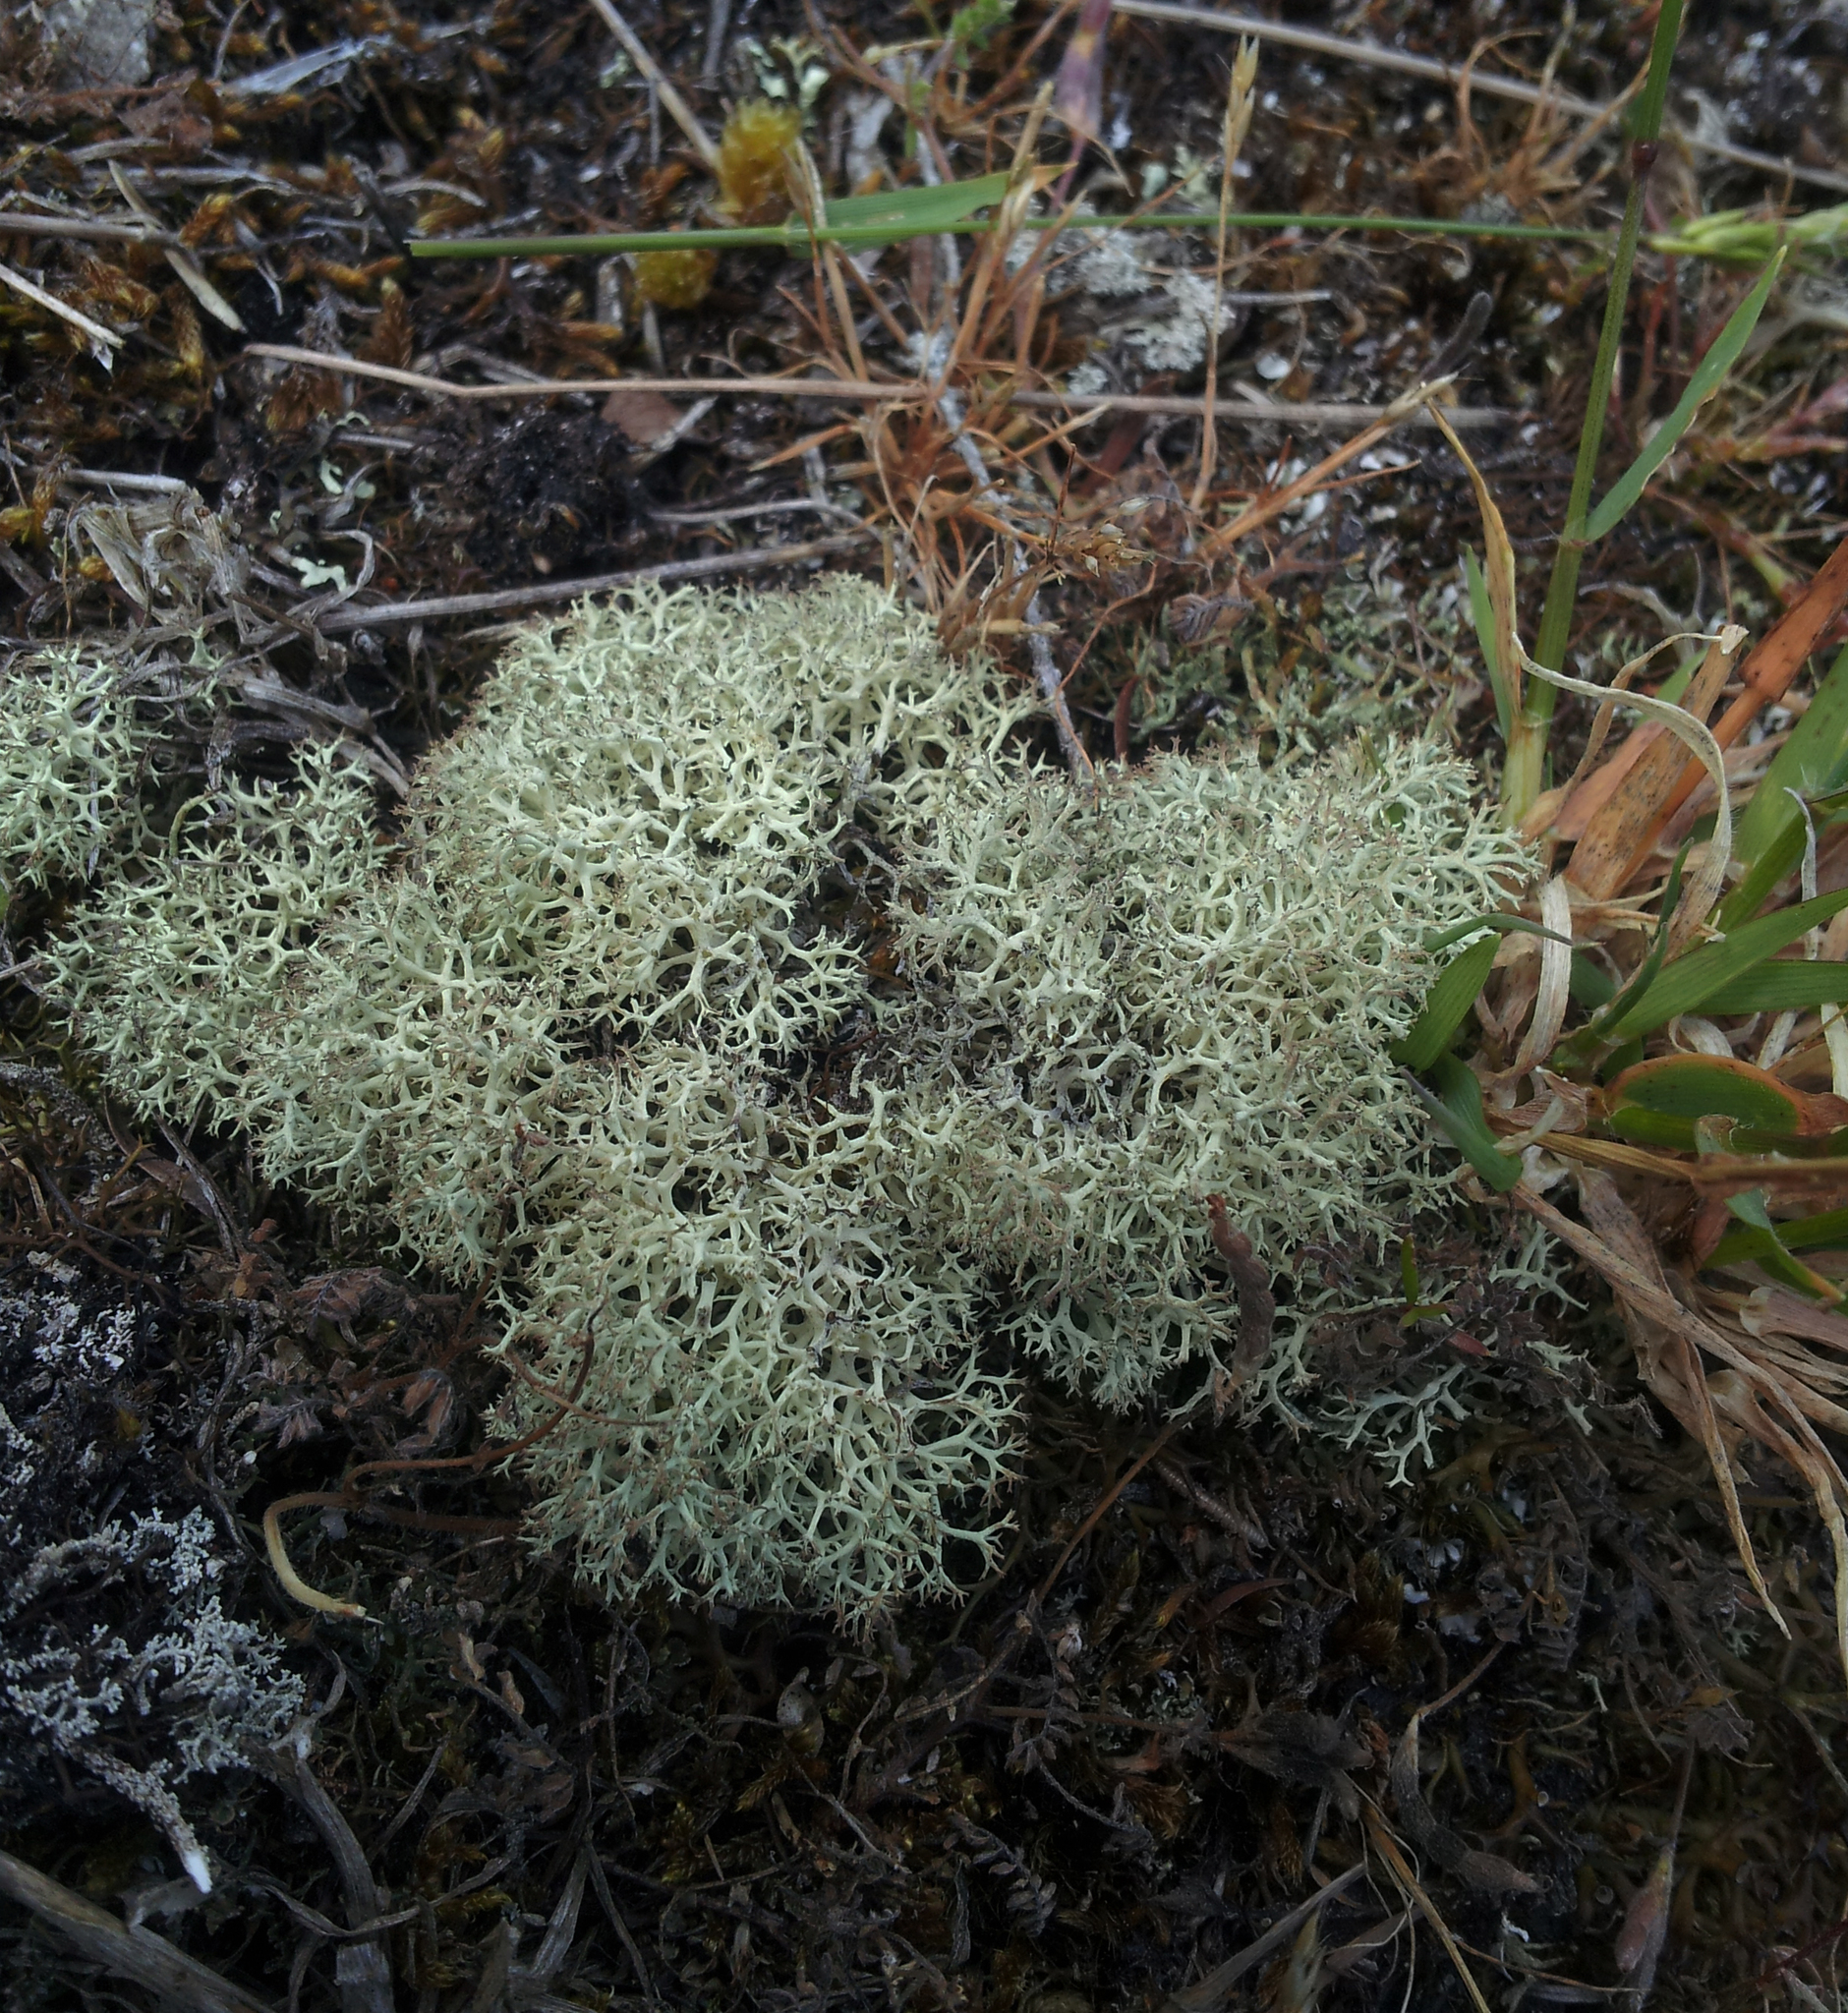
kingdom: Fungi
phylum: Ascomycota
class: Lecanoromycetes
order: Lecanorales
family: Cladoniaceae
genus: Cladonia
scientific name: Cladonia confusa
